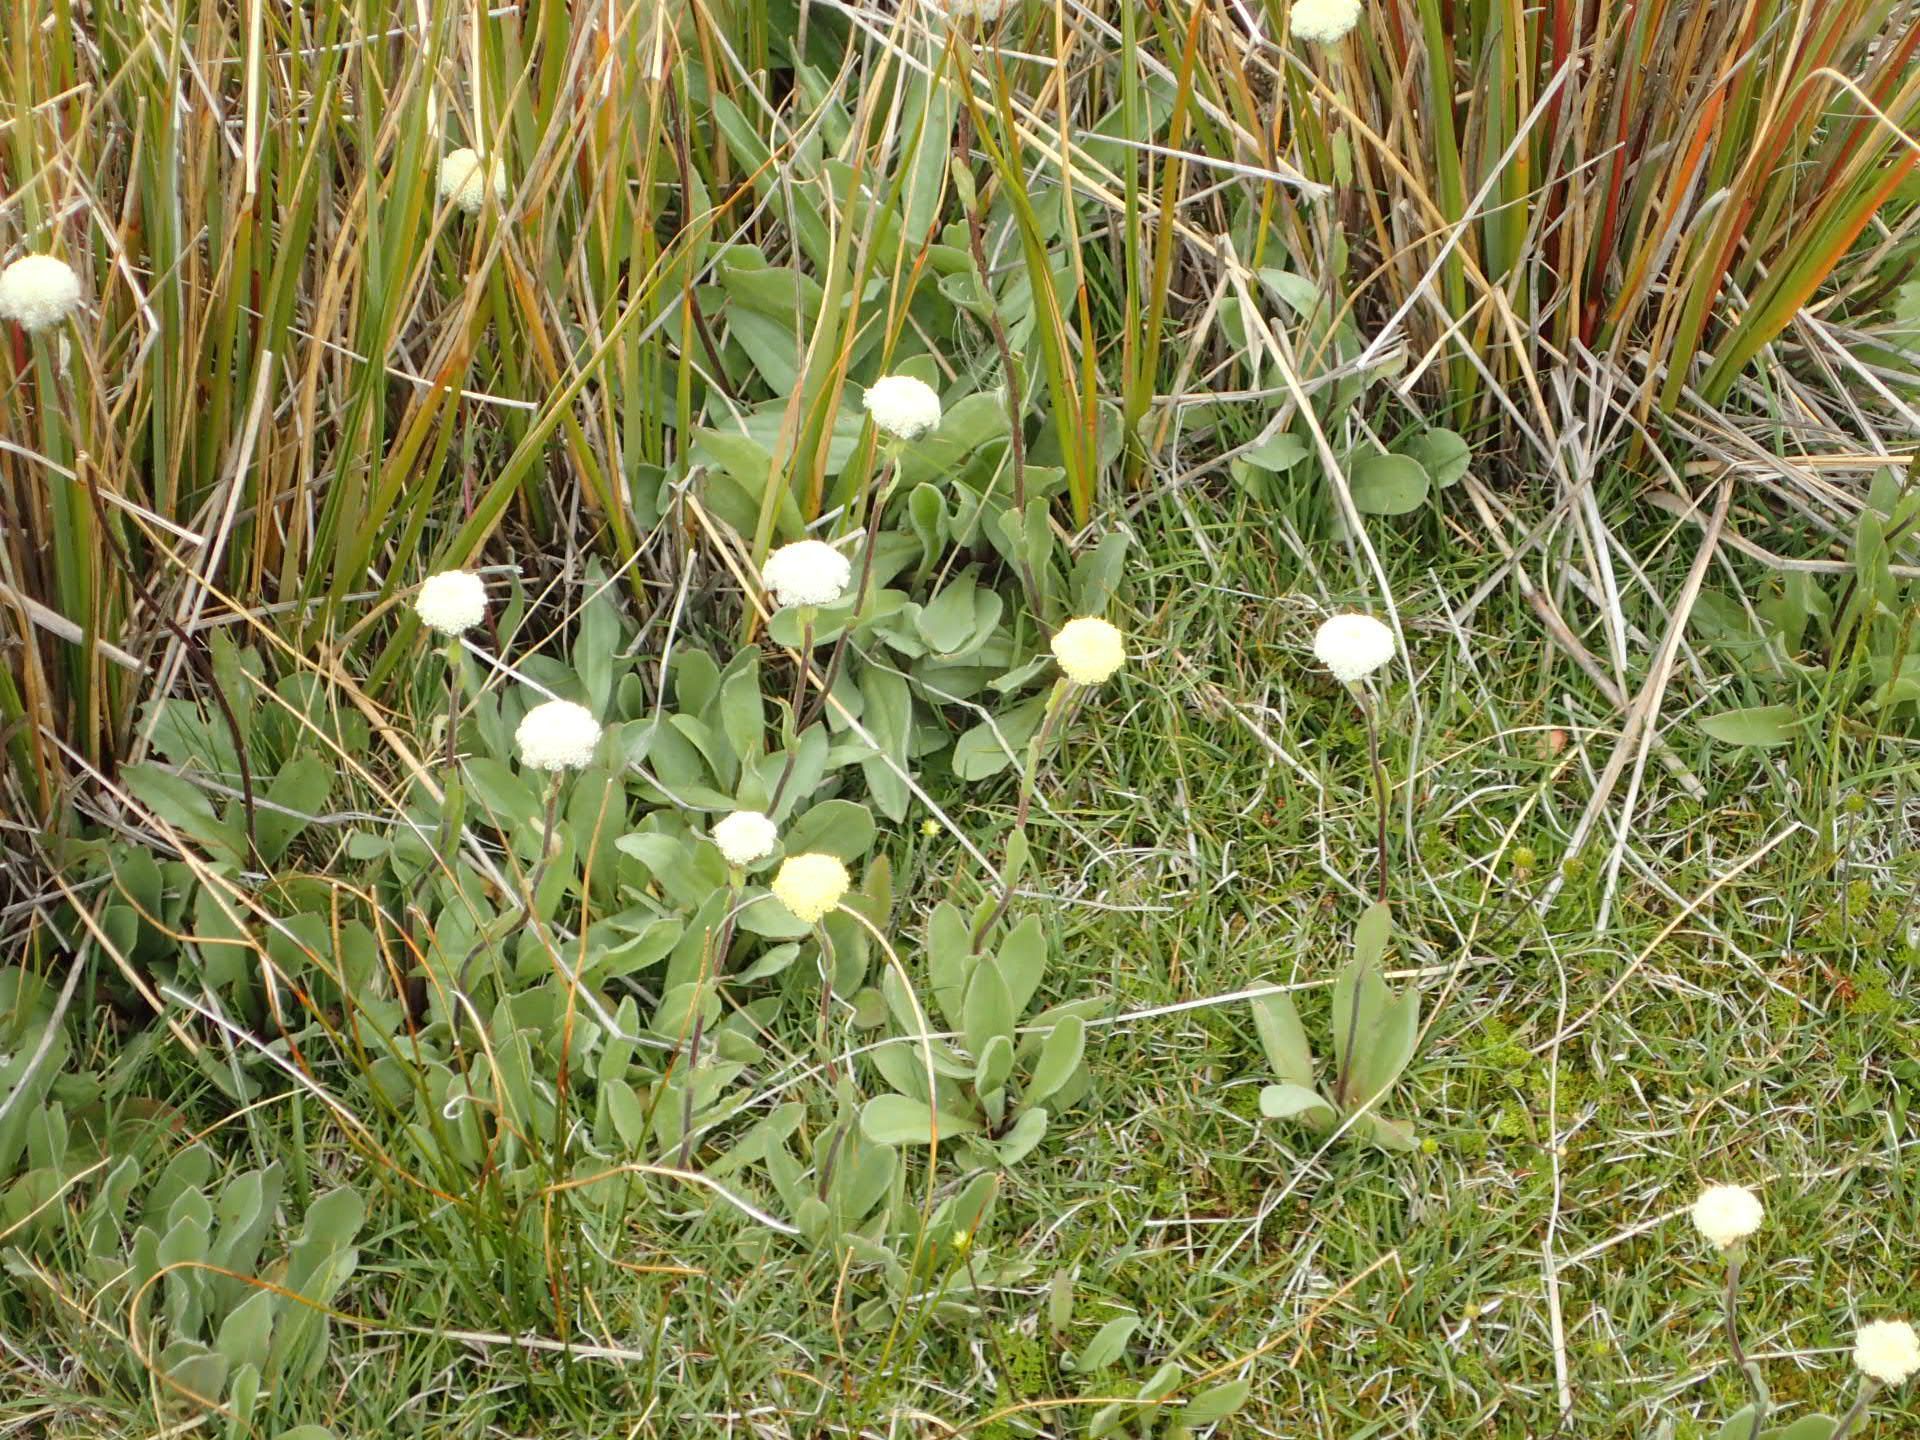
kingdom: Plantae
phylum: Tracheophyta
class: Magnoliopsida
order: Asterales
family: Asteraceae
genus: Craspedia
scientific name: Craspedia uniflora
